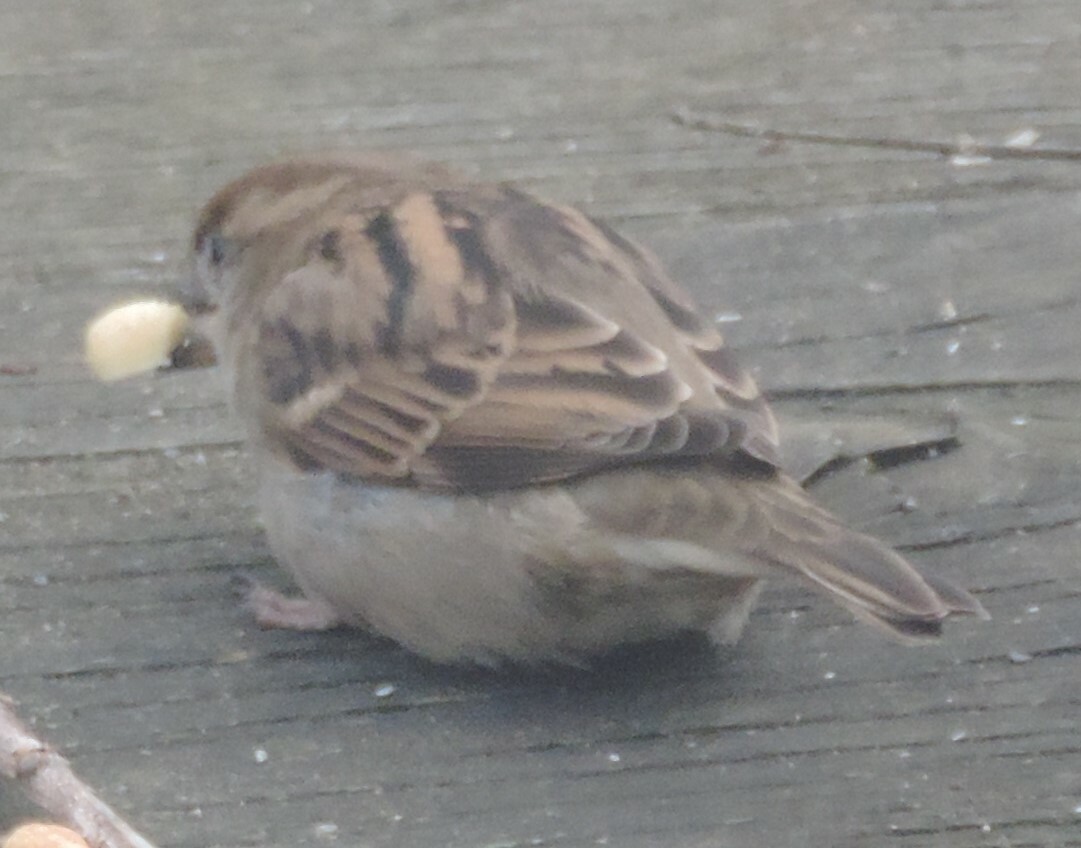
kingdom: Animalia
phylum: Chordata
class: Aves
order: Passeriformes
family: Passeridae
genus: Passer
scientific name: Passer domesticus
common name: House sparrow
